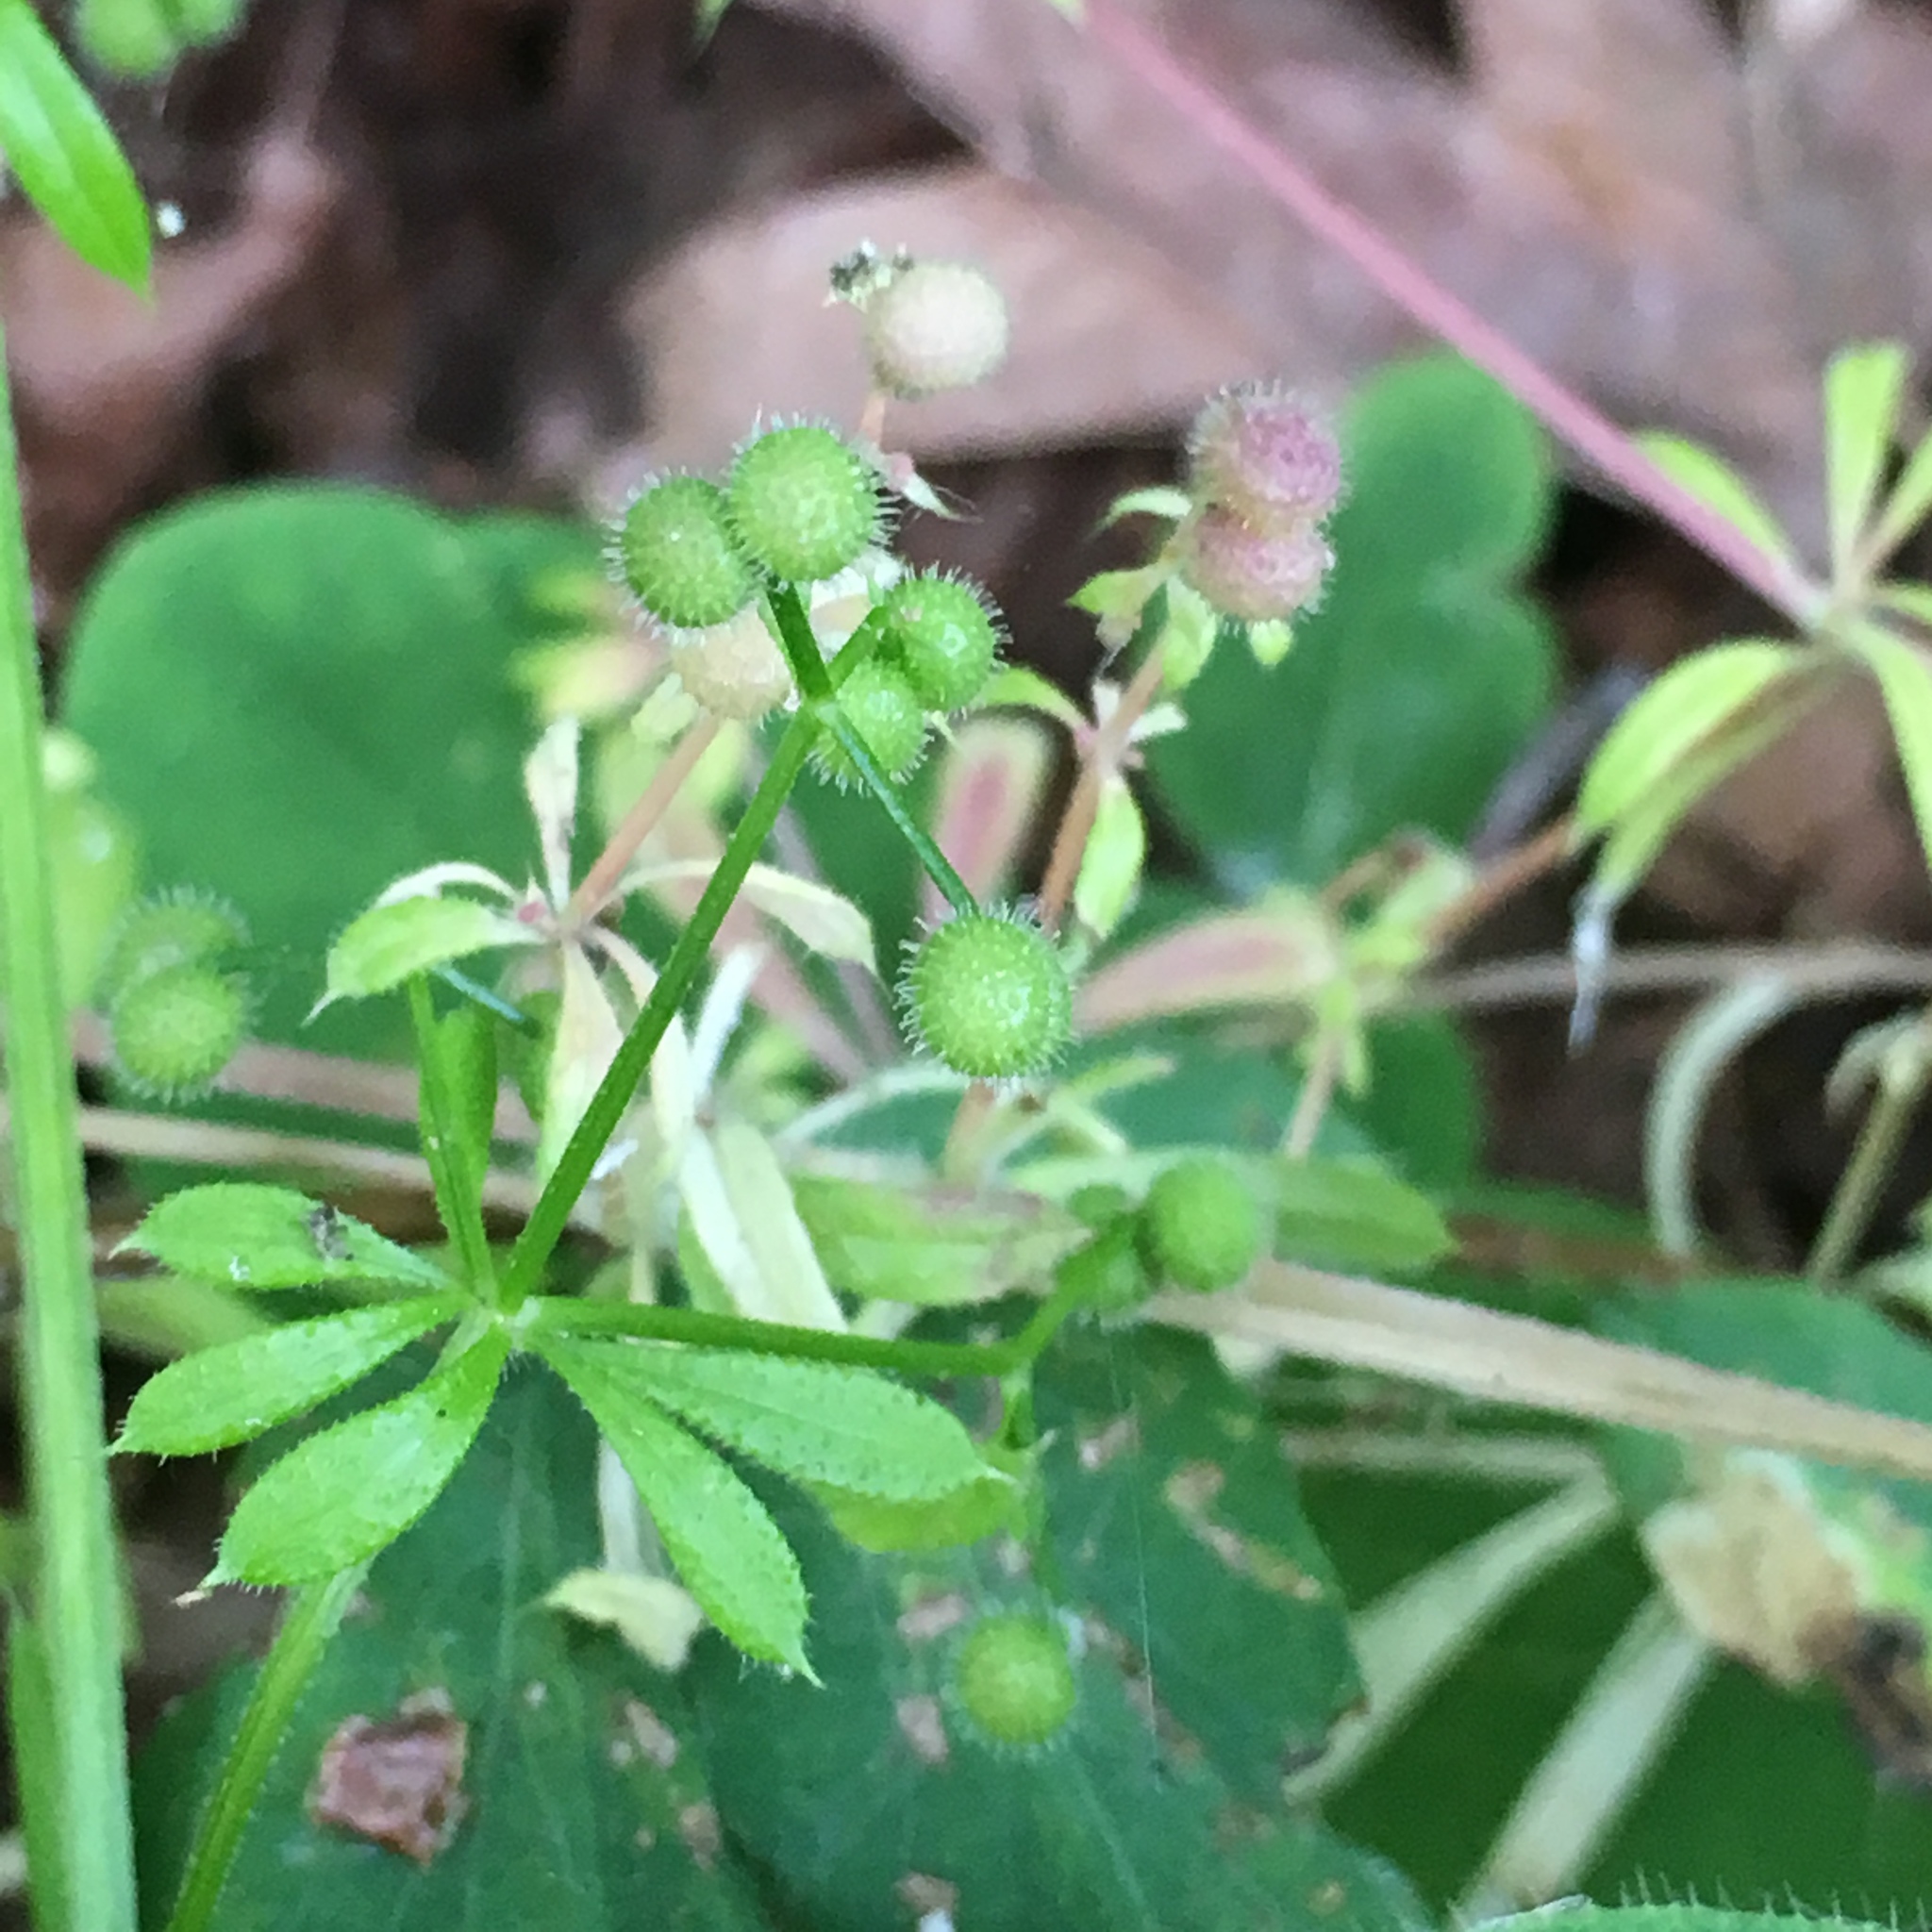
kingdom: Plantae
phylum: Tracheophyta
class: Magnoliopsida
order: Gentianales
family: Rubiaceae
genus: Galium
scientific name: Galium aparine
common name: Cleavers
